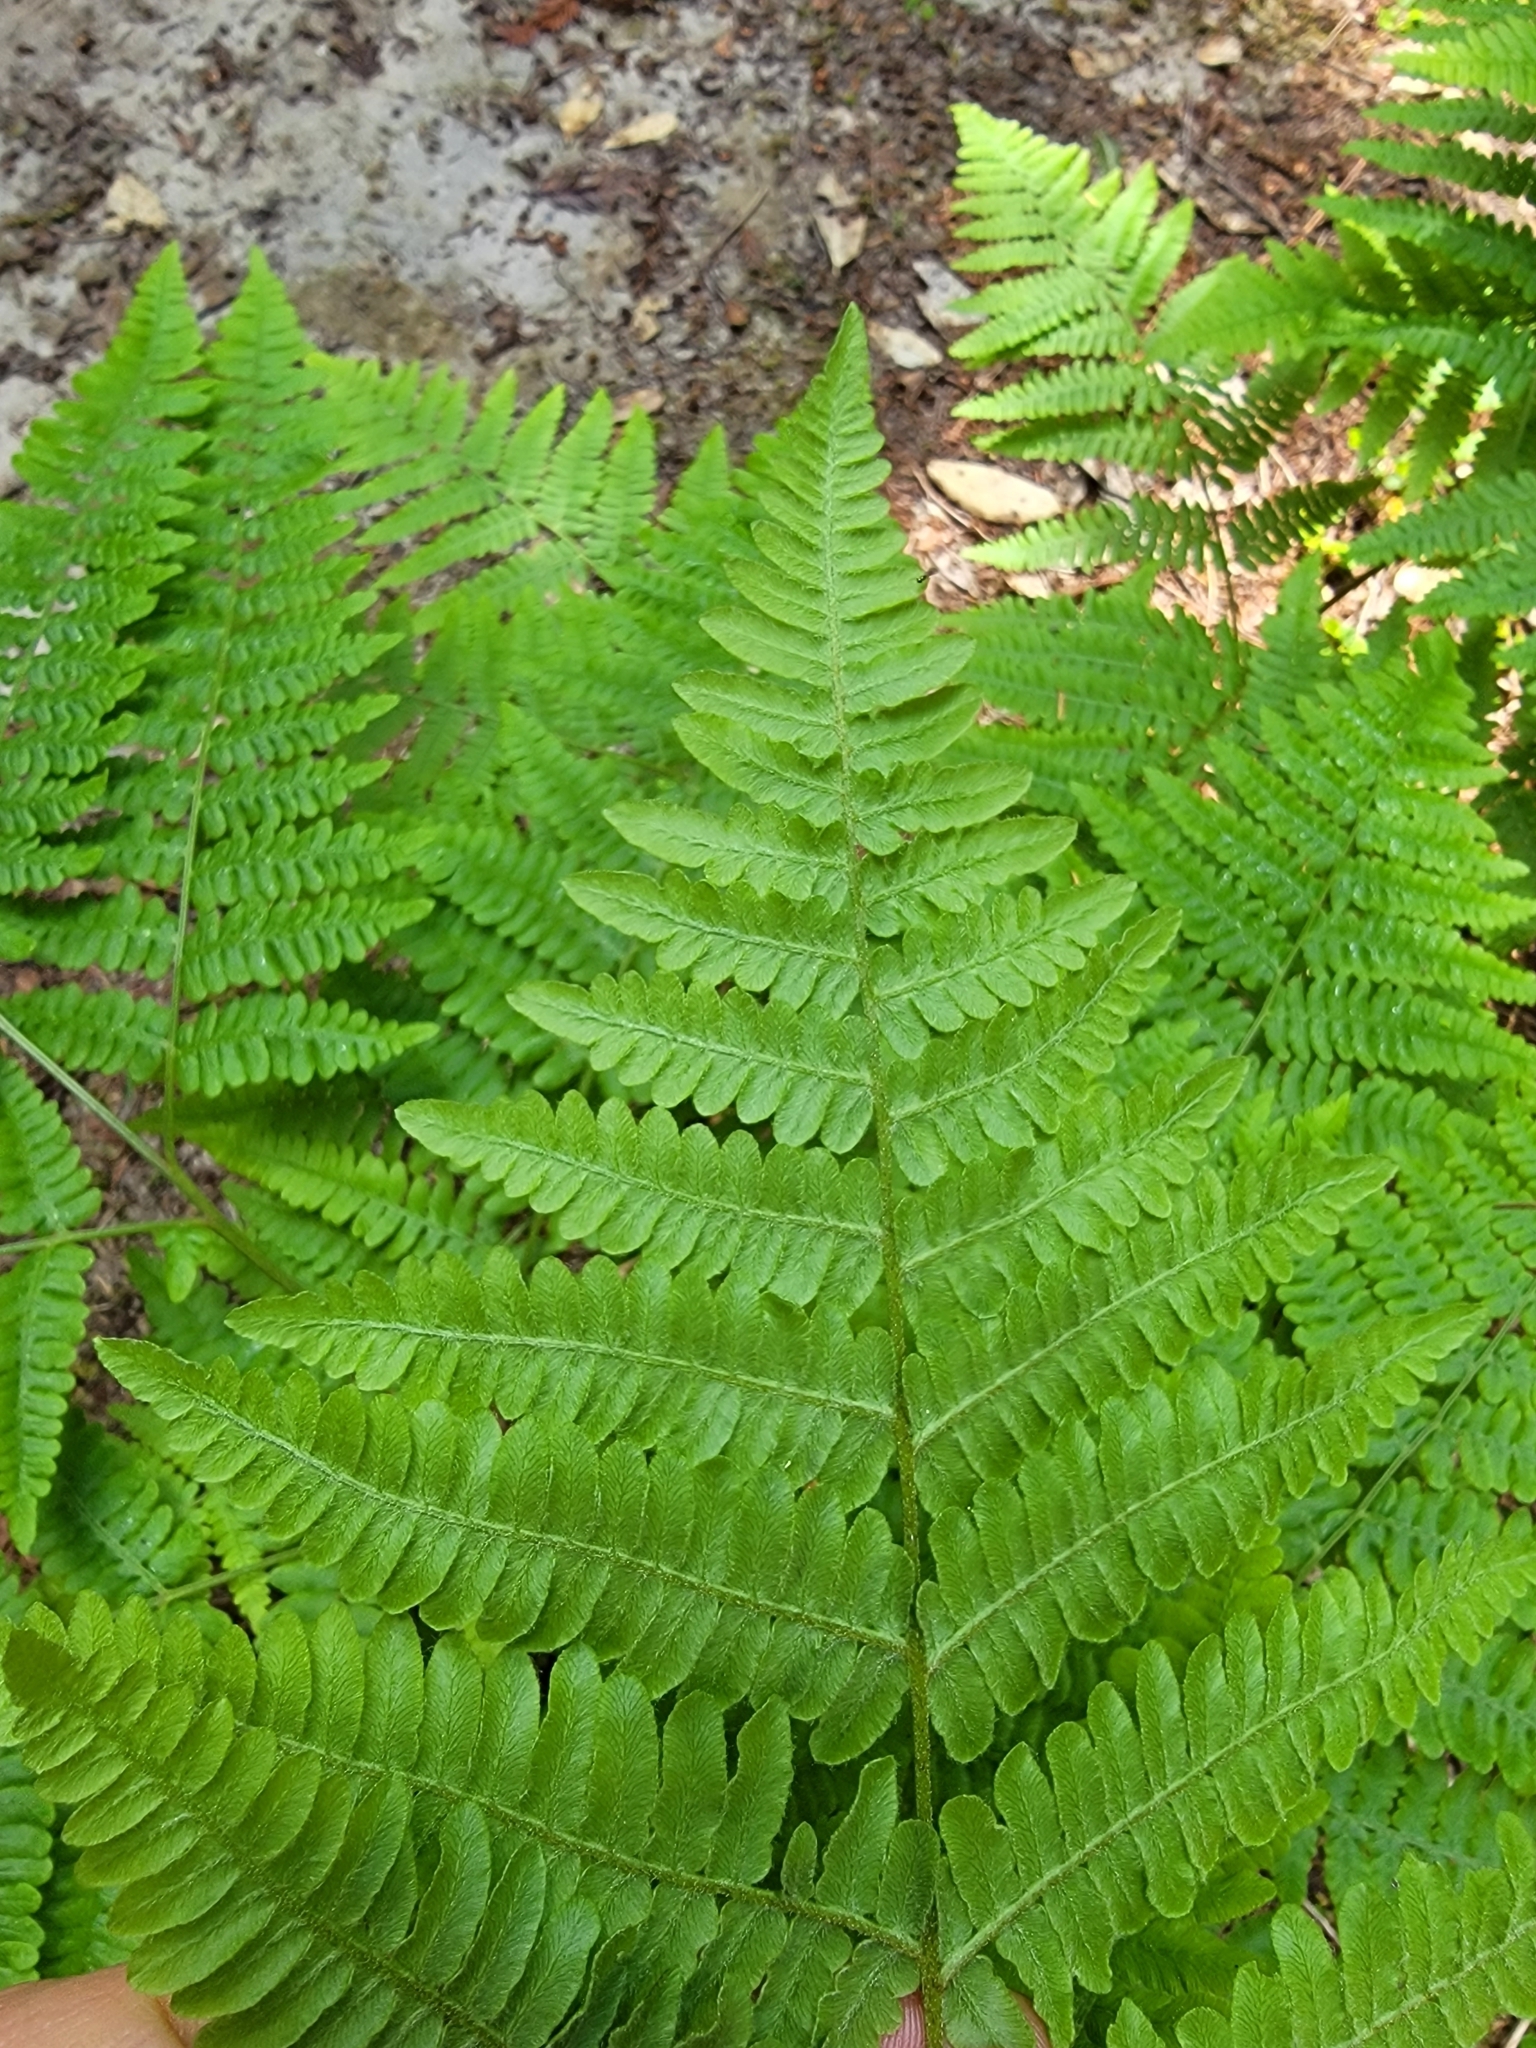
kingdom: Plantae
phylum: Tracheophyta
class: Polypodiopsida
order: Polypodiales
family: Dennstaedtiaceae
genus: Pteridium
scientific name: Pteridium aquilinum
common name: Bracken
